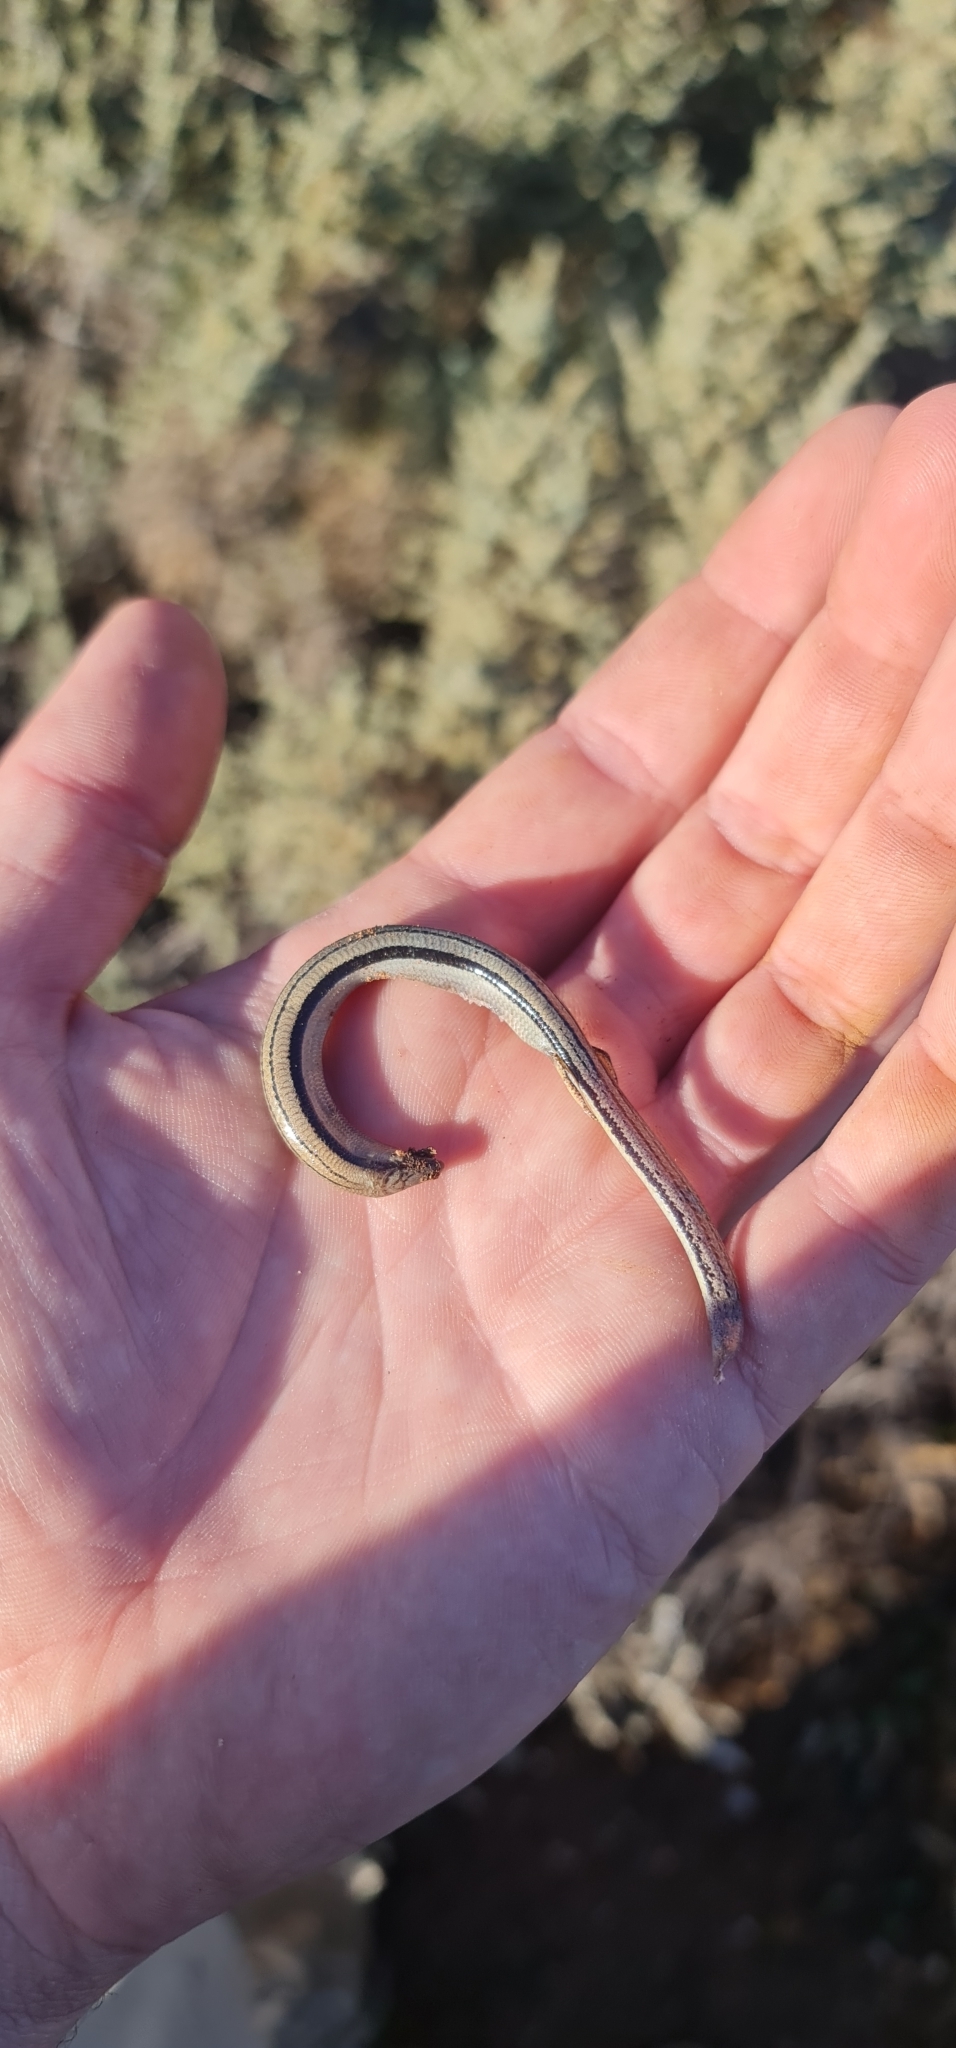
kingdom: Animalia
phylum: Chordata
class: Squamata
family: Scincidae
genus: Lerista
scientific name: Lerista edwardsae
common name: Myall slider
